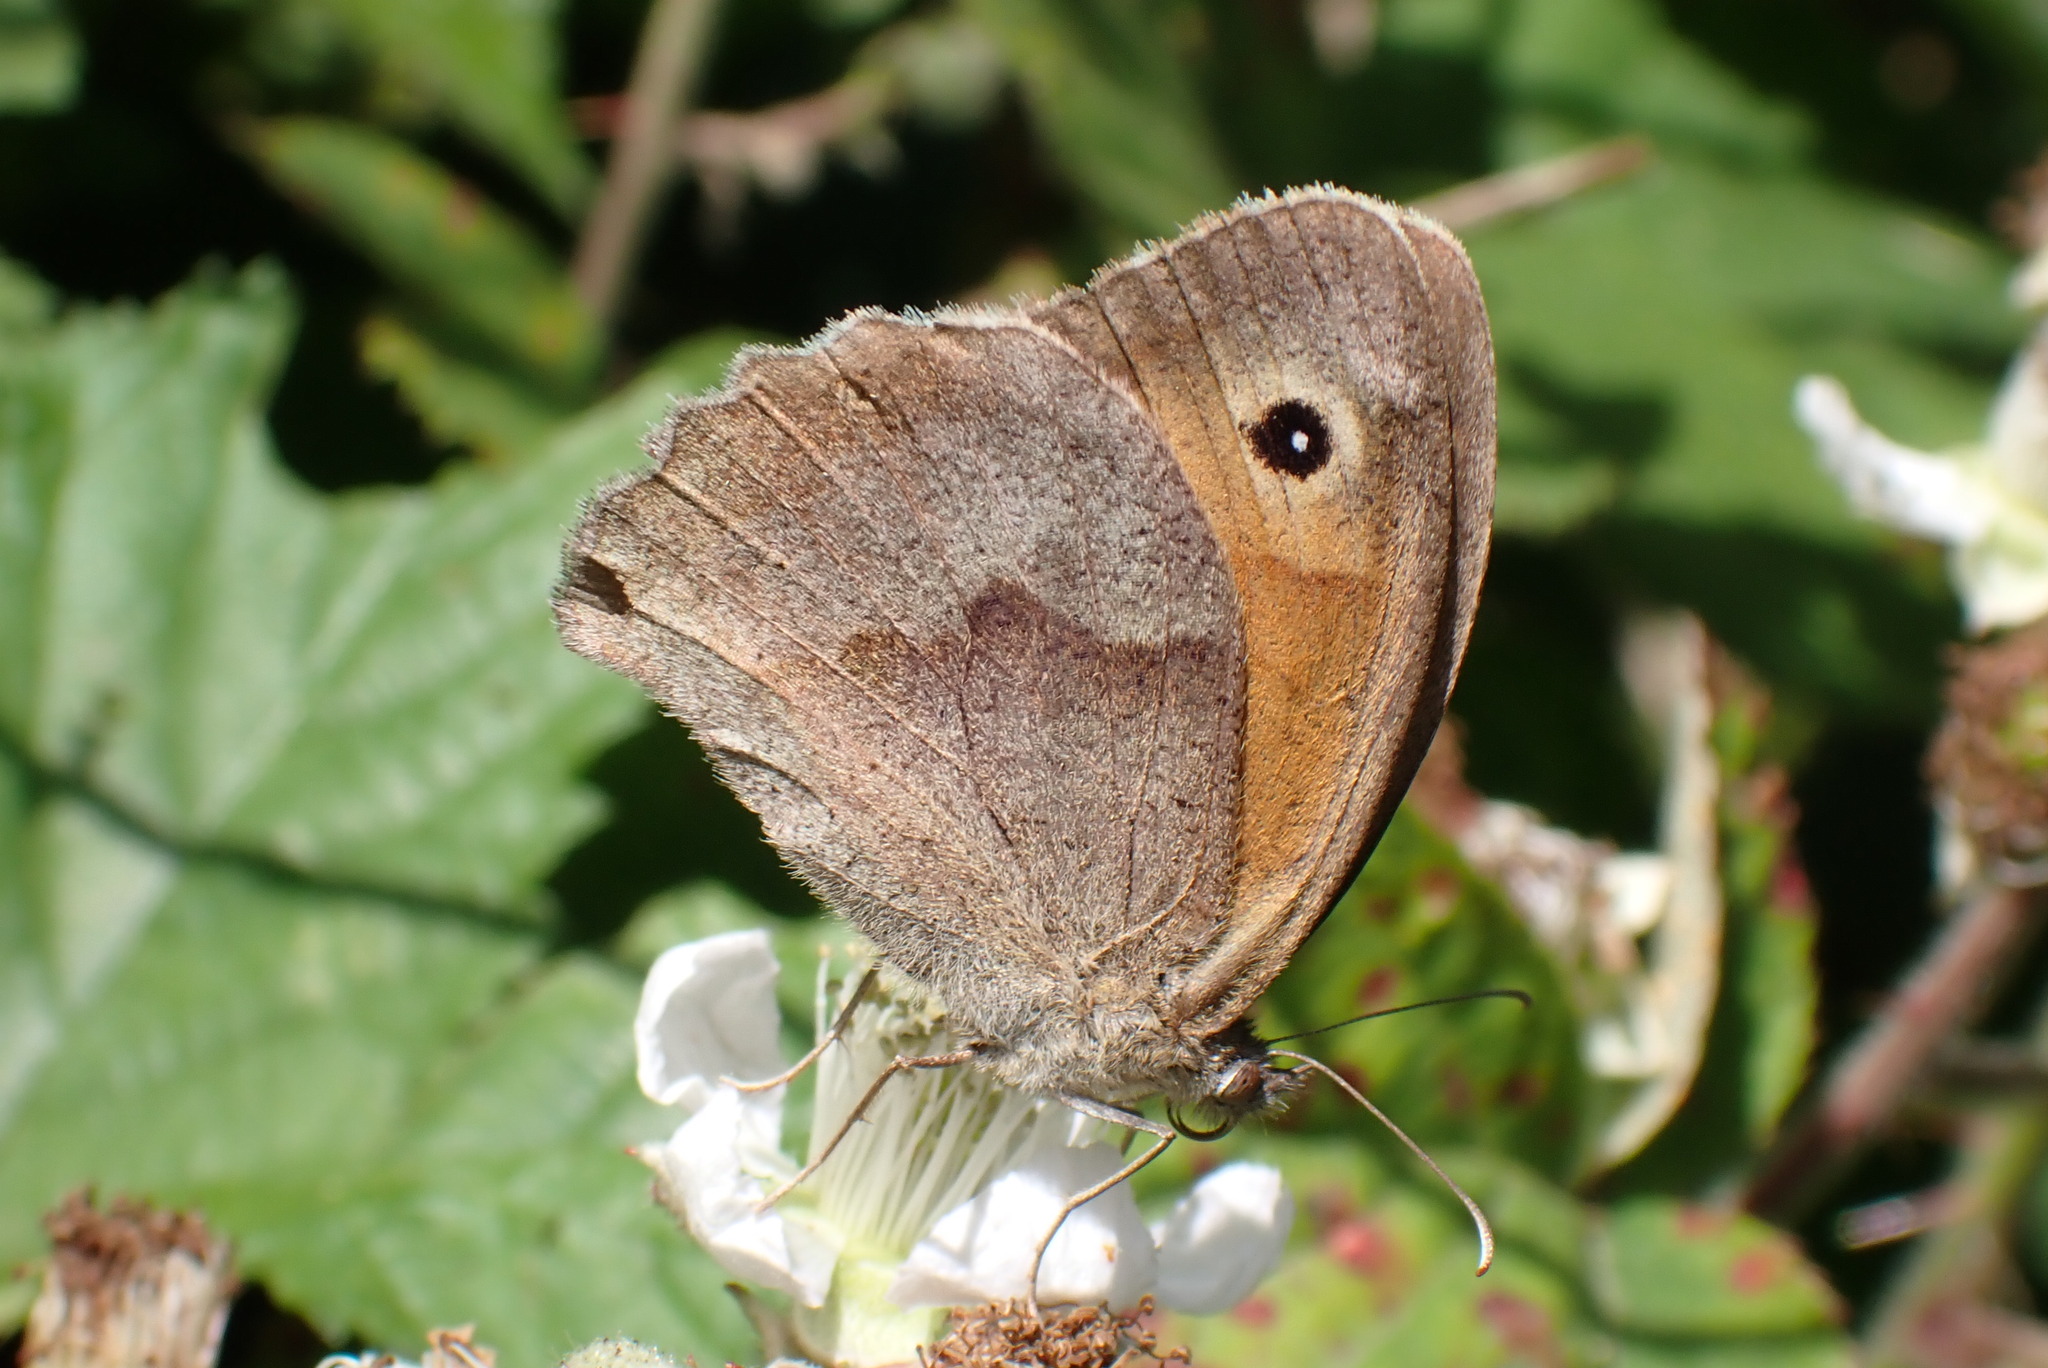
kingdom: Animalia
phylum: Arthropoda
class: Insecta
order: Lepidoptera
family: Nymphalidae
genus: Maniola
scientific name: Maniola jurtina
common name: Meadow brown
